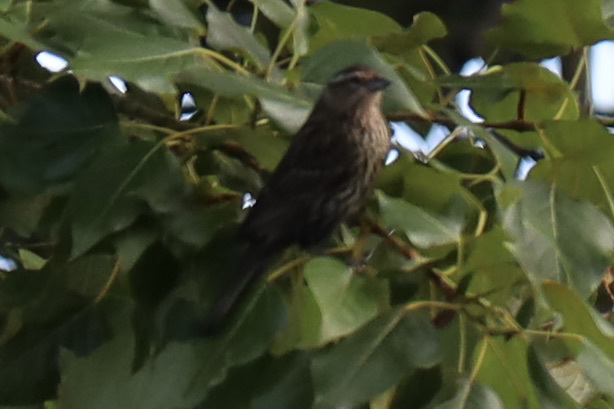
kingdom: Animalia
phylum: Chordata
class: Aves
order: Passeriformes
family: Icteridae
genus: Agelaius
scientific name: Agelaius phoeniceus
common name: Red-winged blackbird
